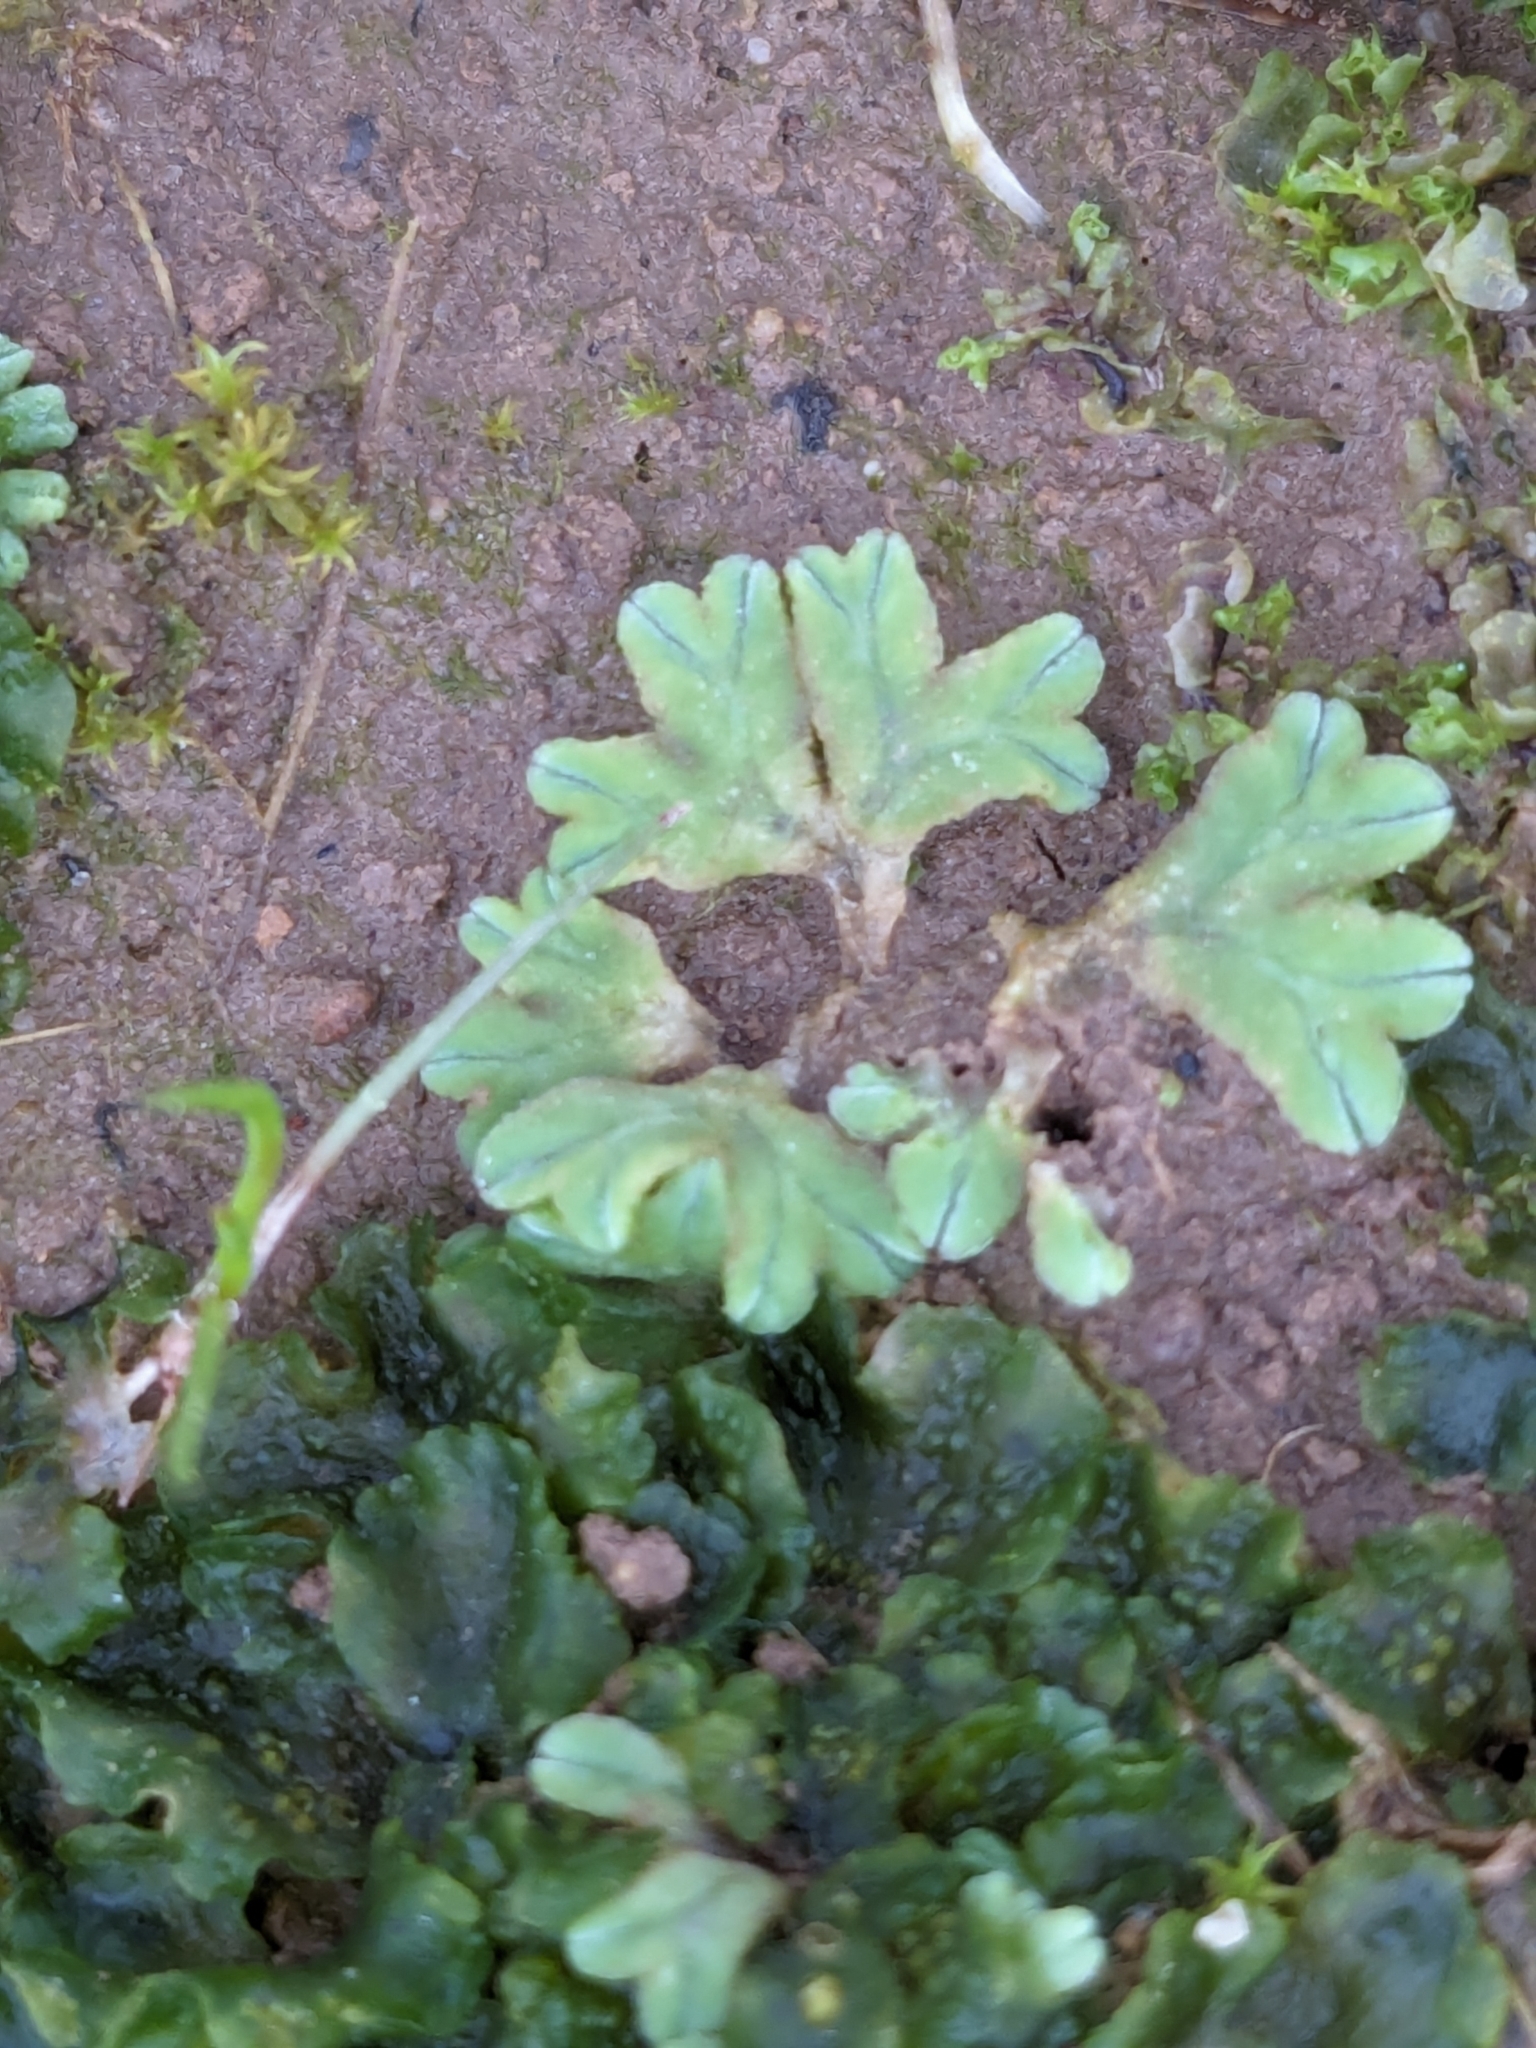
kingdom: Plantae
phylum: Marchantiophyta
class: Marchantiopsida
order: Marchantiales
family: Ricciaceae
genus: Riccia
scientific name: Riccia sorocarpa
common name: Common crystalwort
